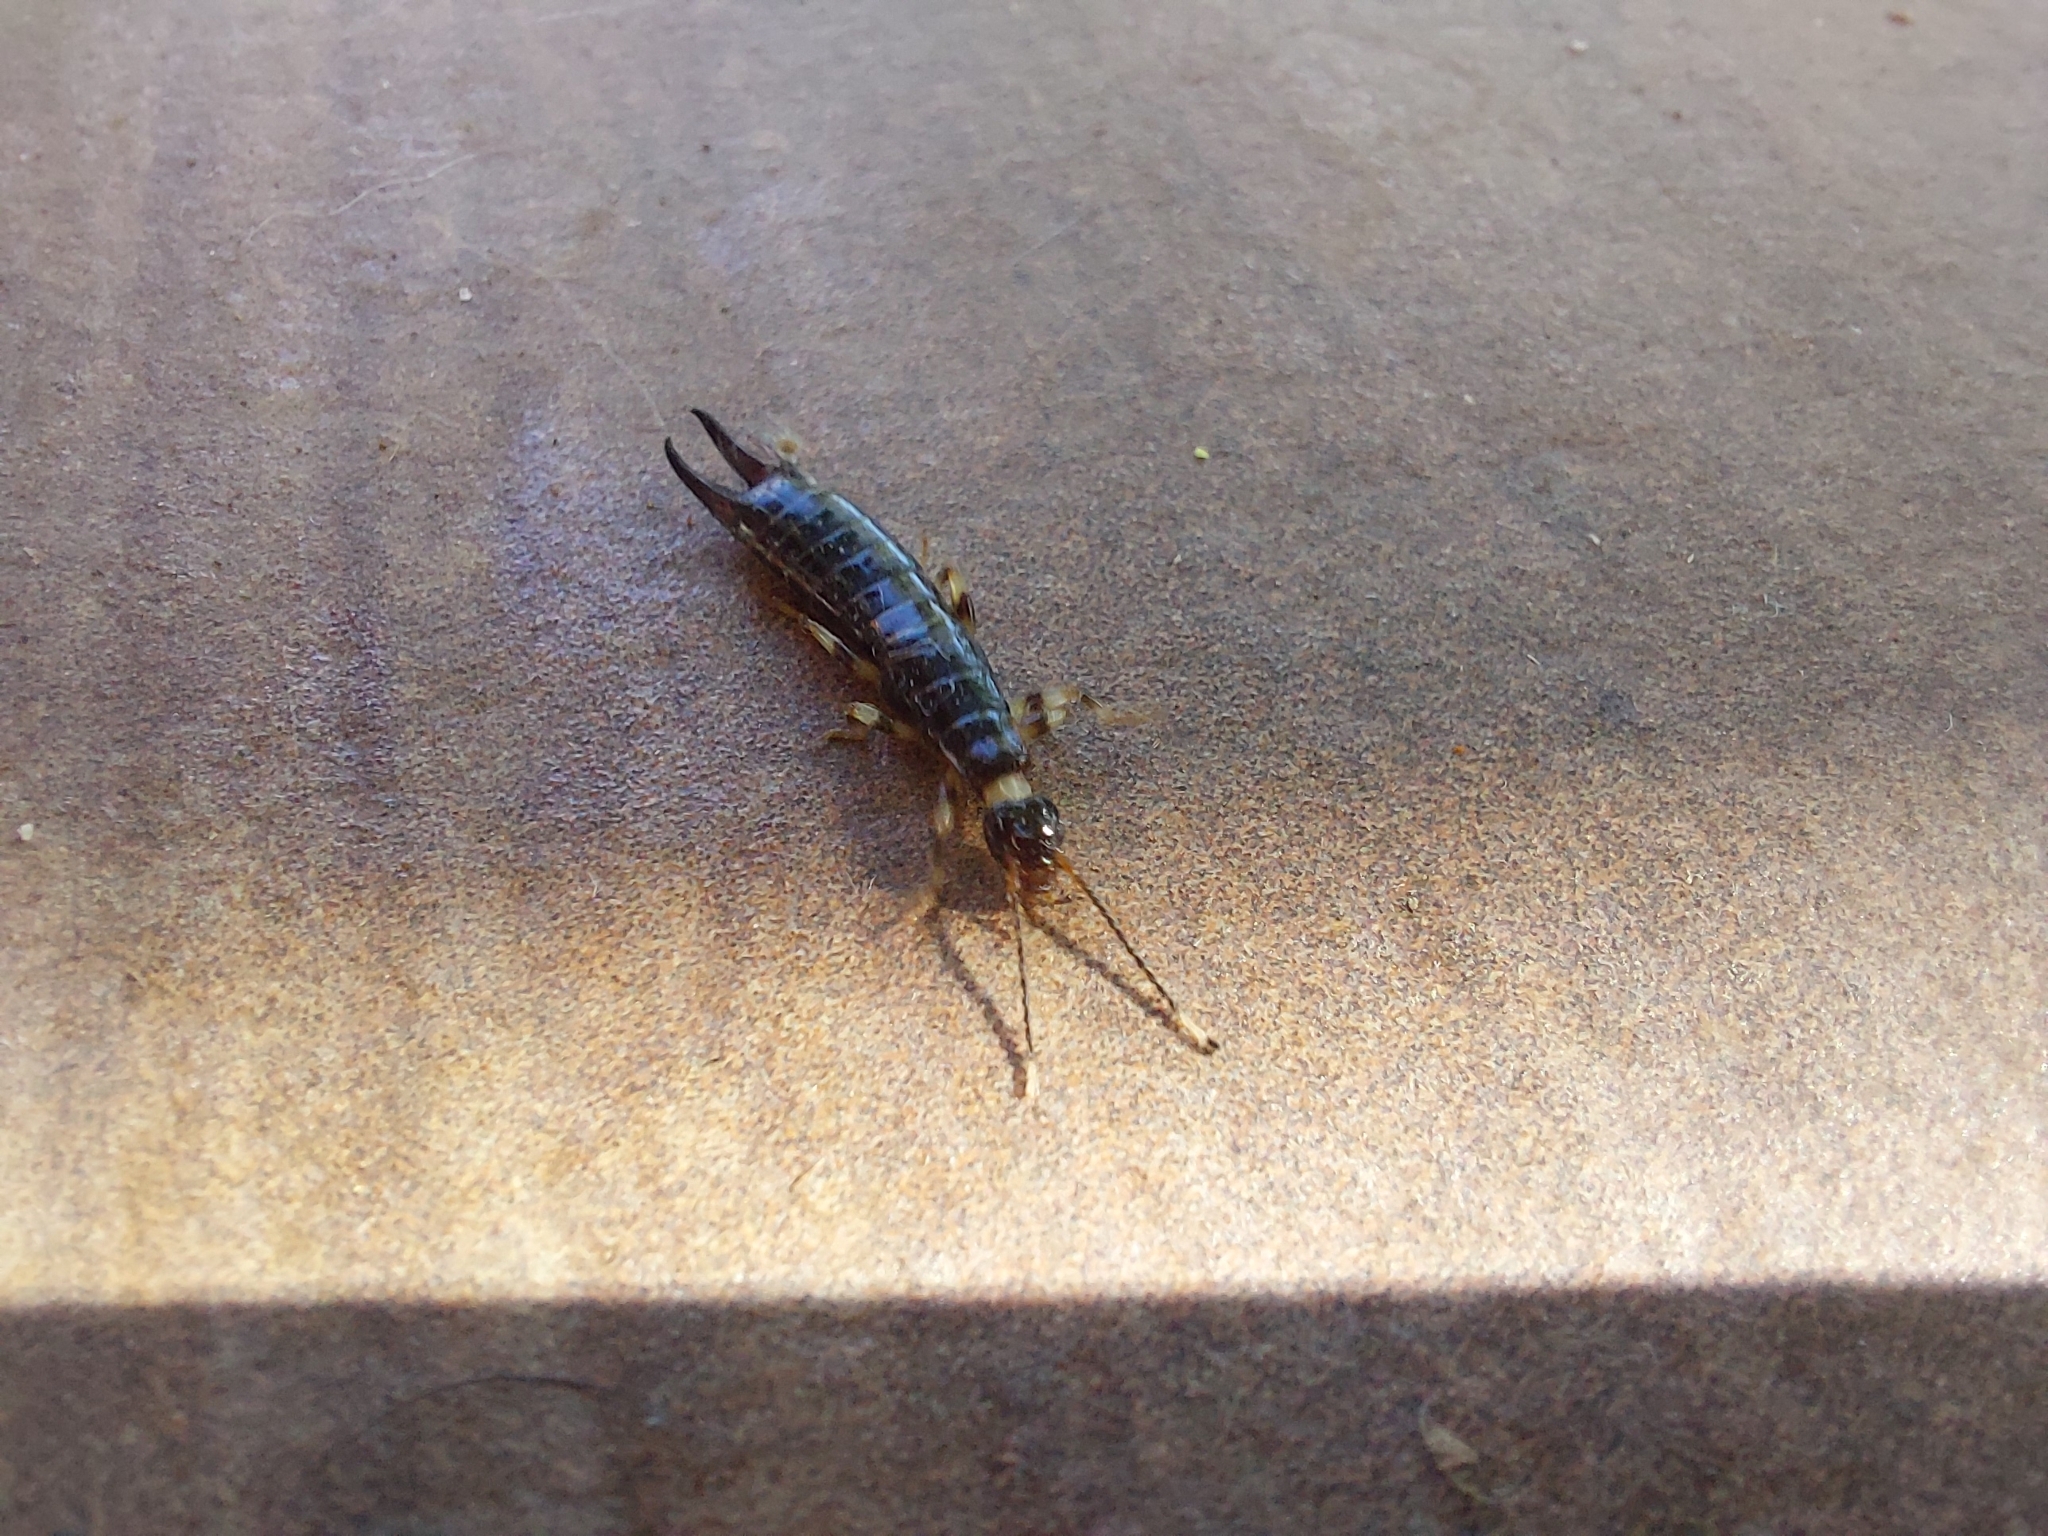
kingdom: Animalia
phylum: Arthropoda
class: Insecta
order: Dermaptera
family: Anisolabididae
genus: Euborellia
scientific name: Euborellia annulipes
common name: Ringlegged earwig
